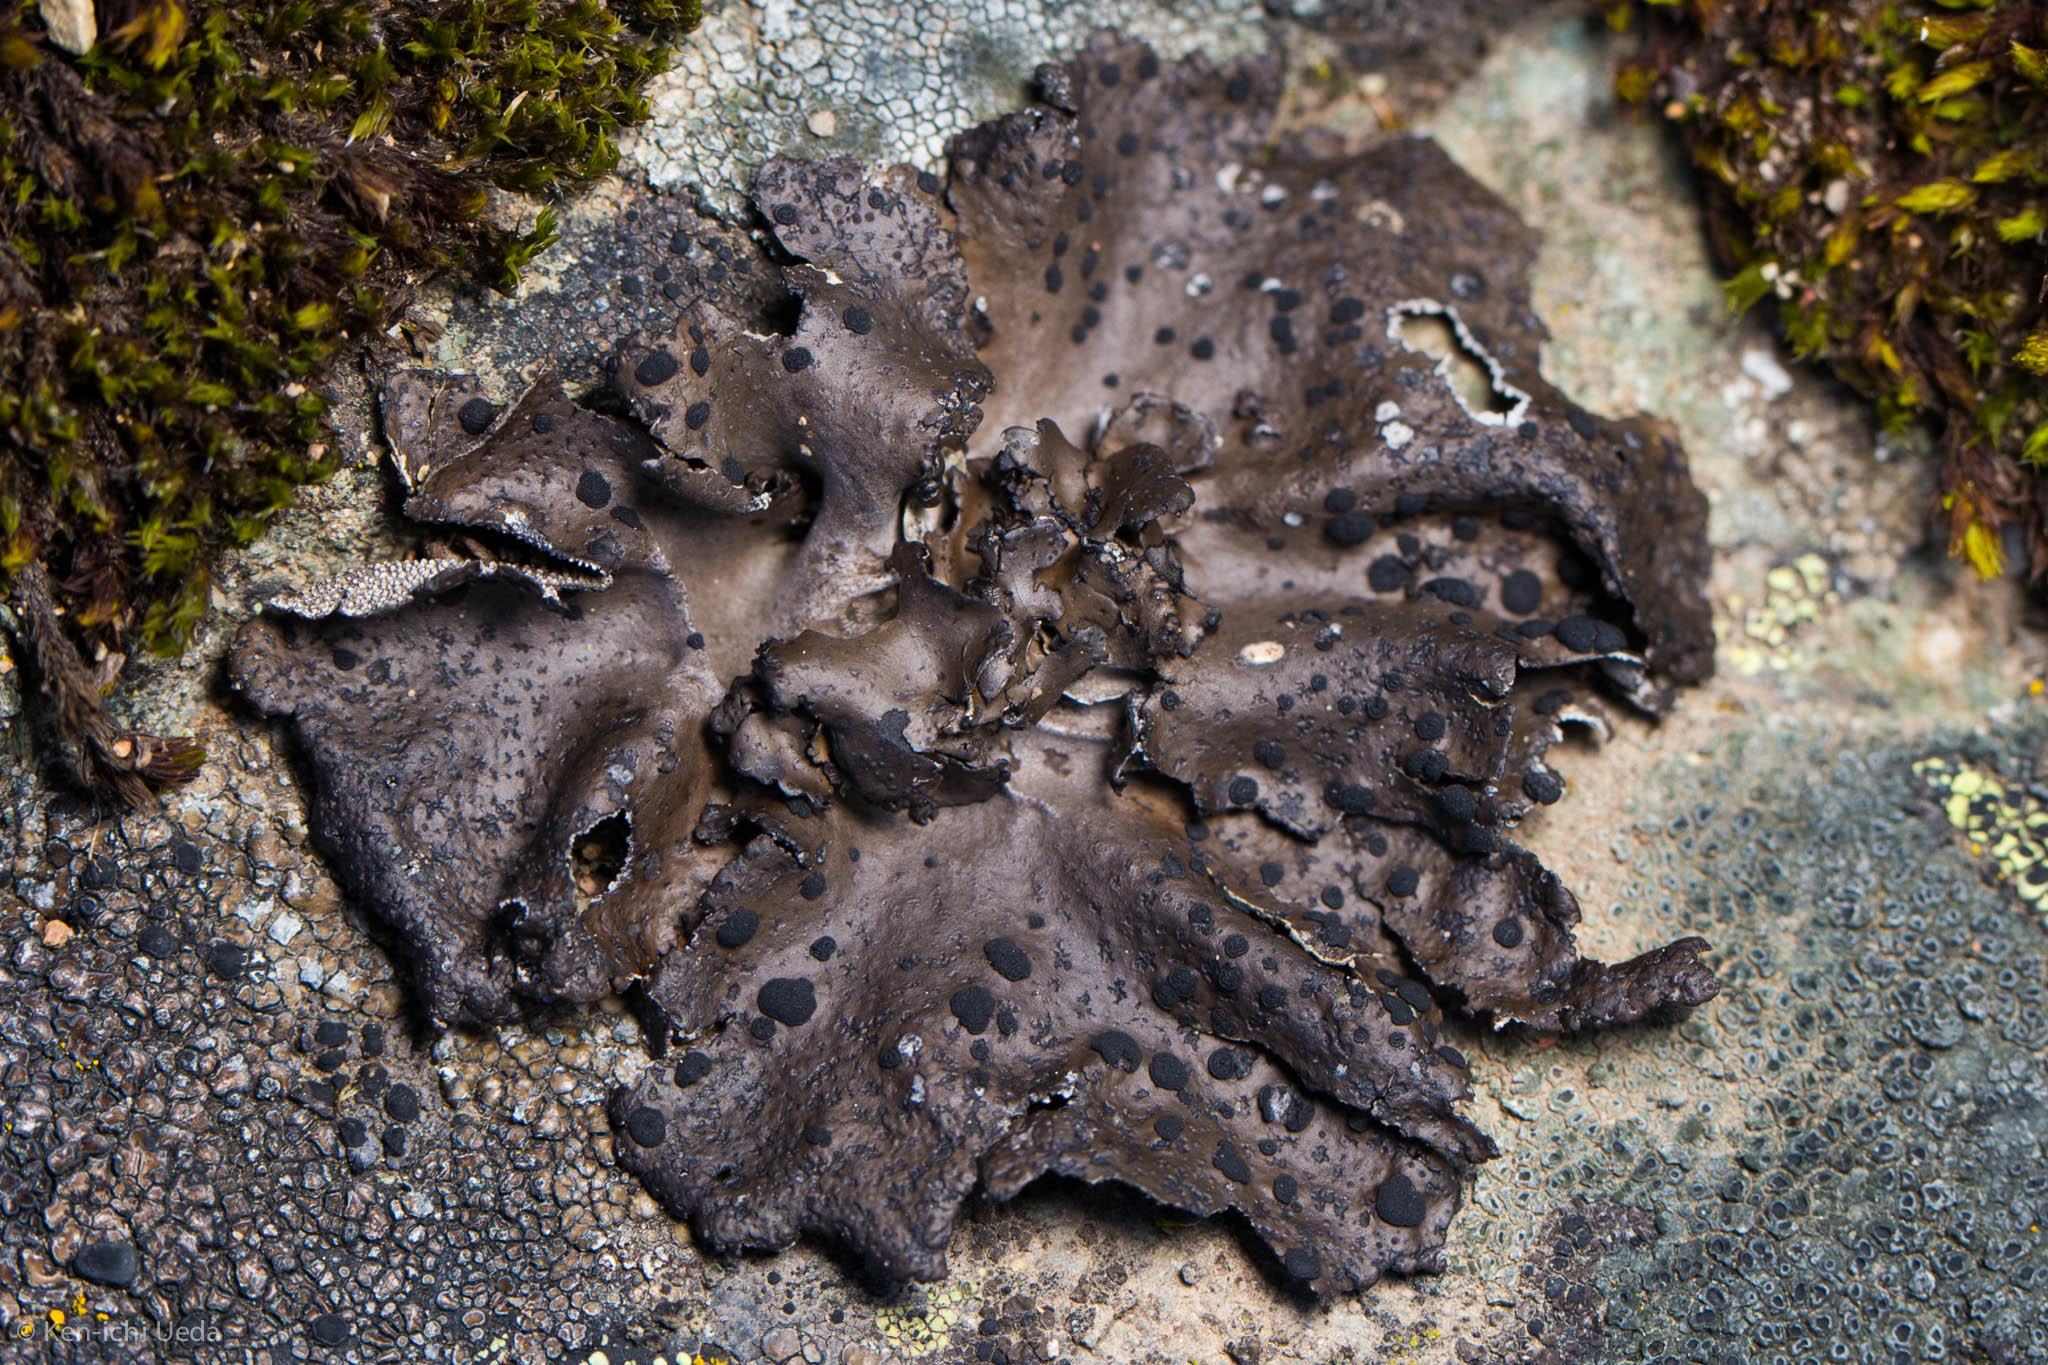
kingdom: Fungi
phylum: Ascomycota
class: Lecanoromycetes
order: Umbilicariales
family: Umbilicariaceae
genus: Umbilicaria
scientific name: Umbilicaria phaea
